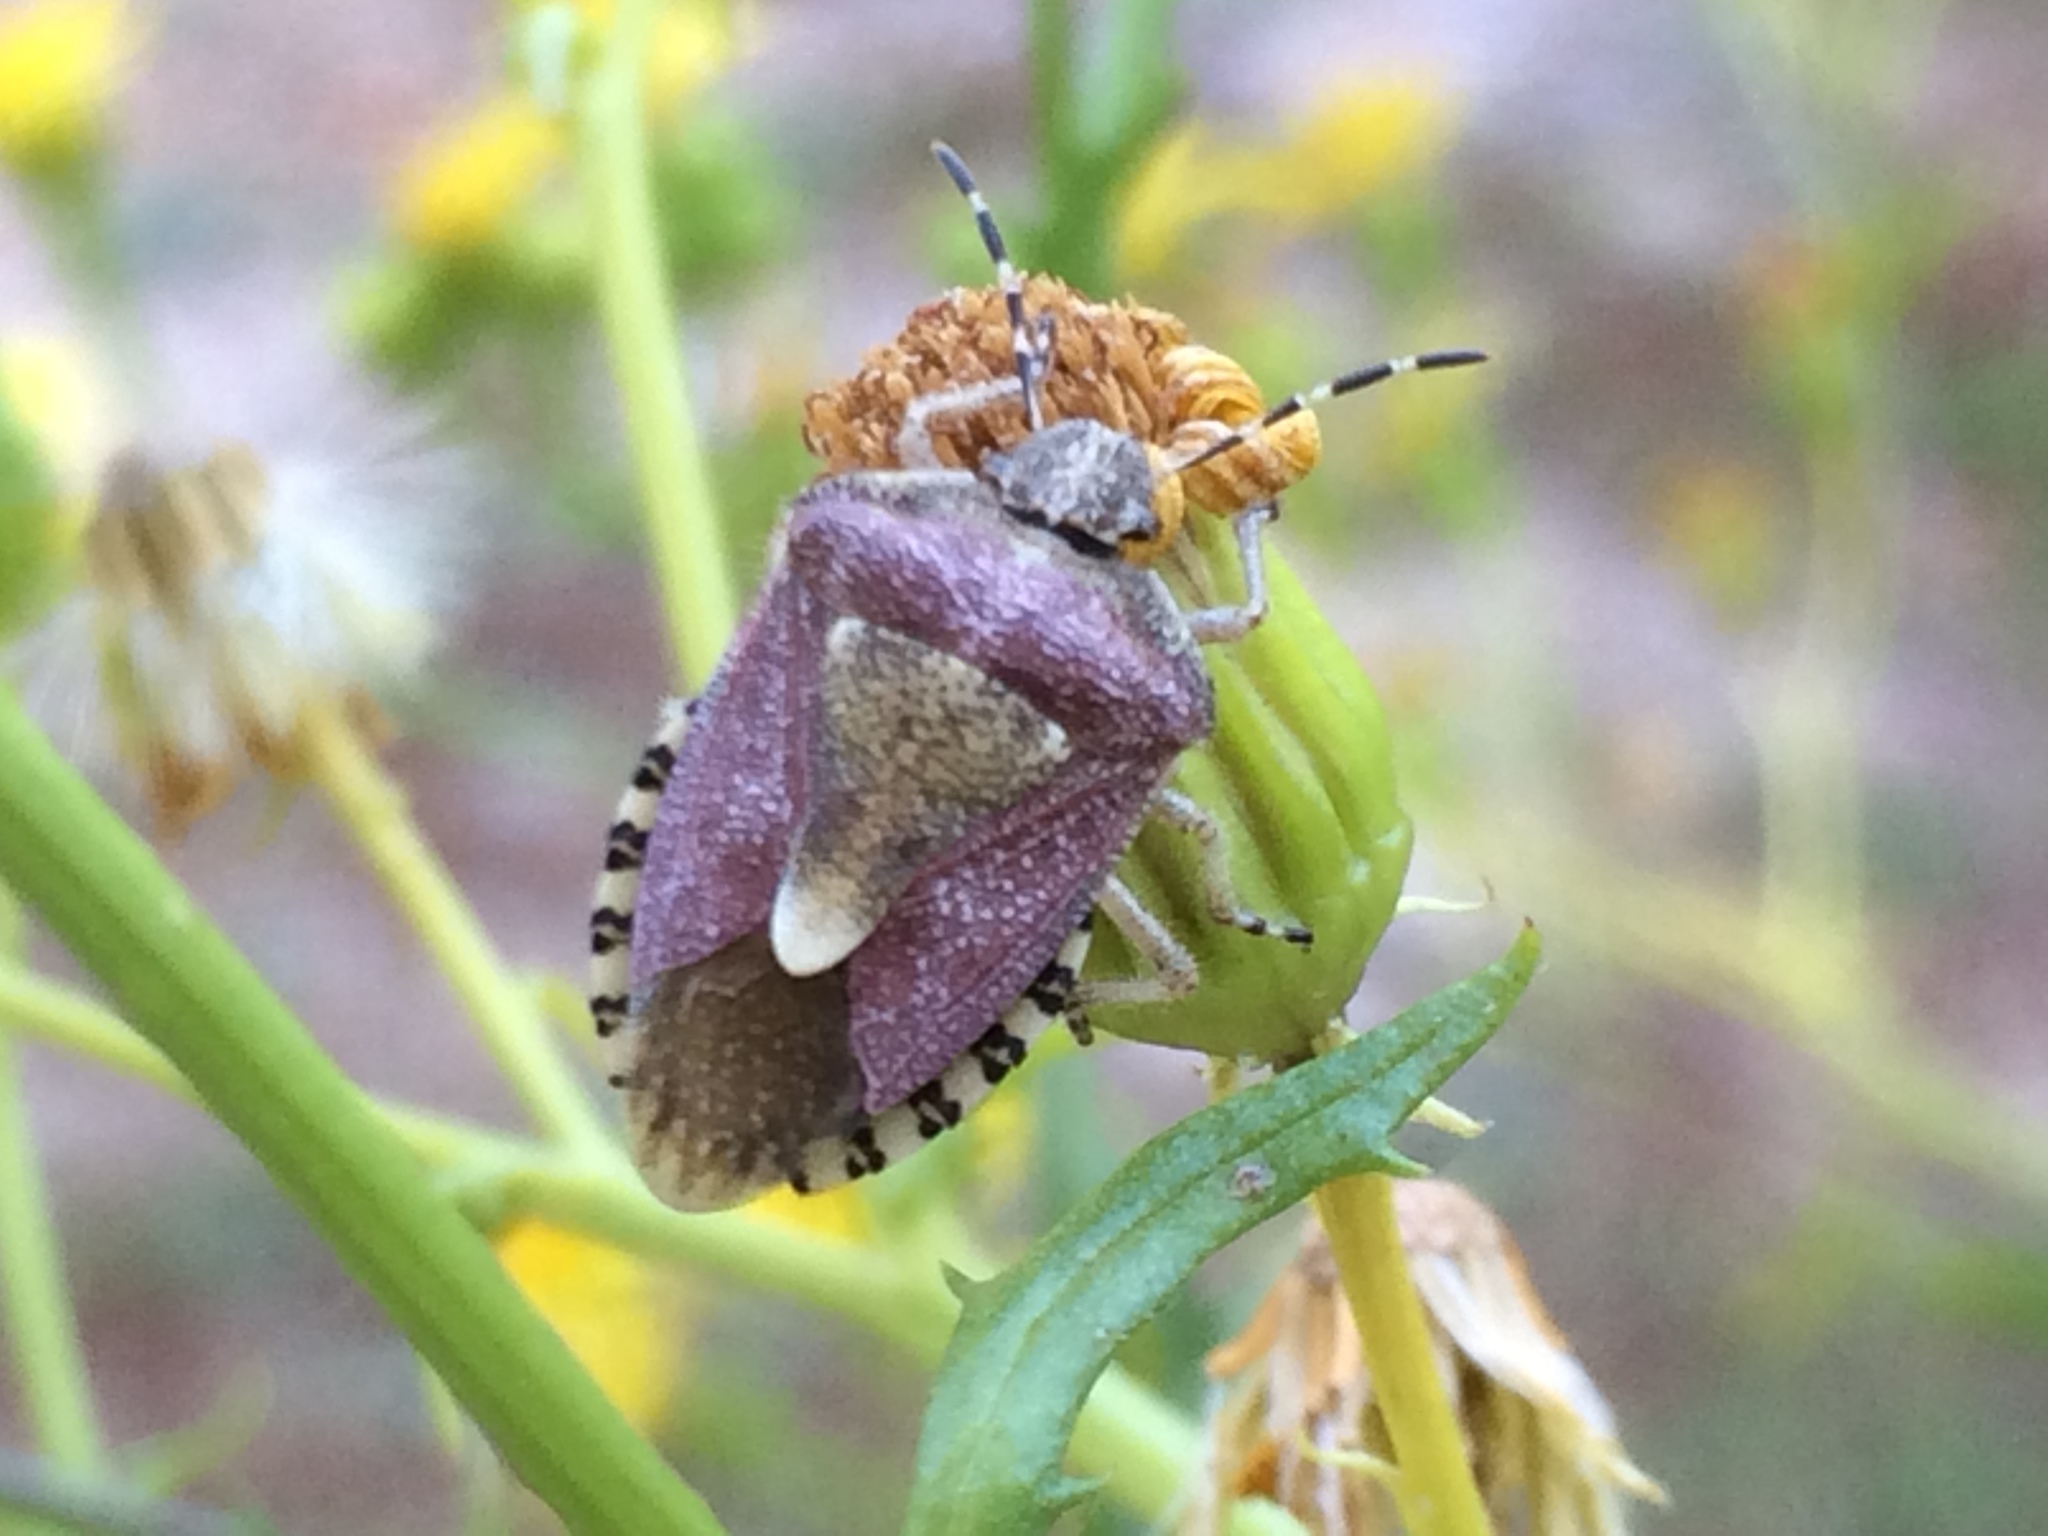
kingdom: Animalia
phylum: Arthropoda
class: Insecta
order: Hemiptera
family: Pentatomidae
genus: Dolycoris
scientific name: Dolycoris baccarum
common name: Sloe bug
